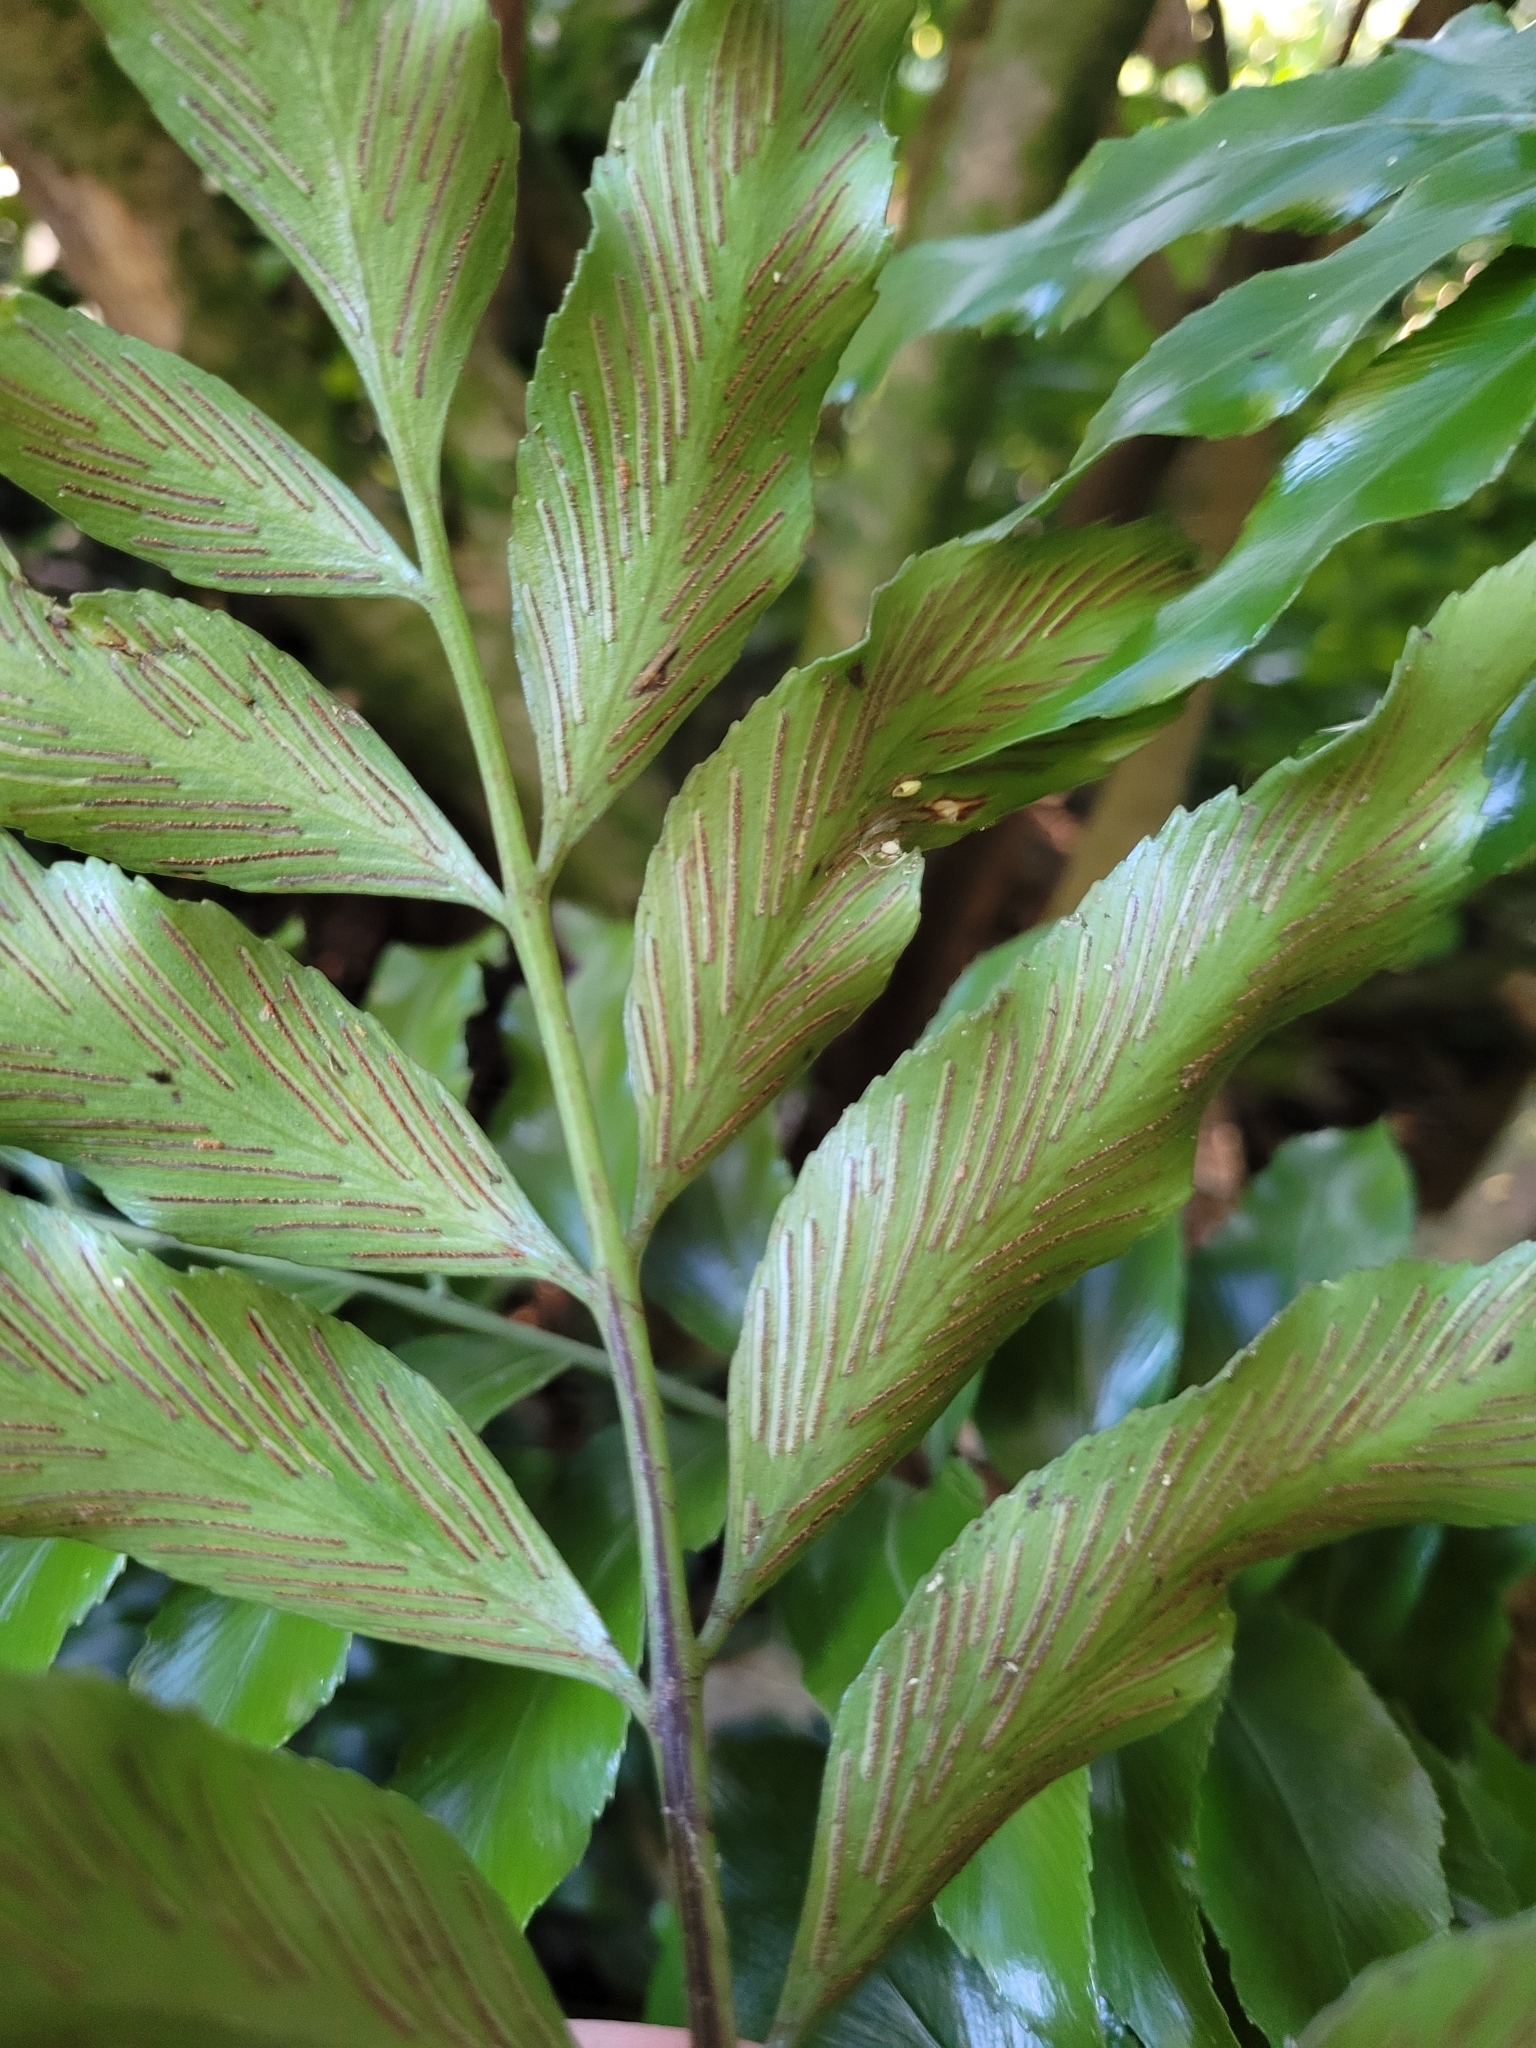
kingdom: Plantae
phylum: Tracheophyta
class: Polypodiopsida
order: Polypodiales
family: Aspleniaceae
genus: Asplenium
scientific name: Asplenium oblongifolium
